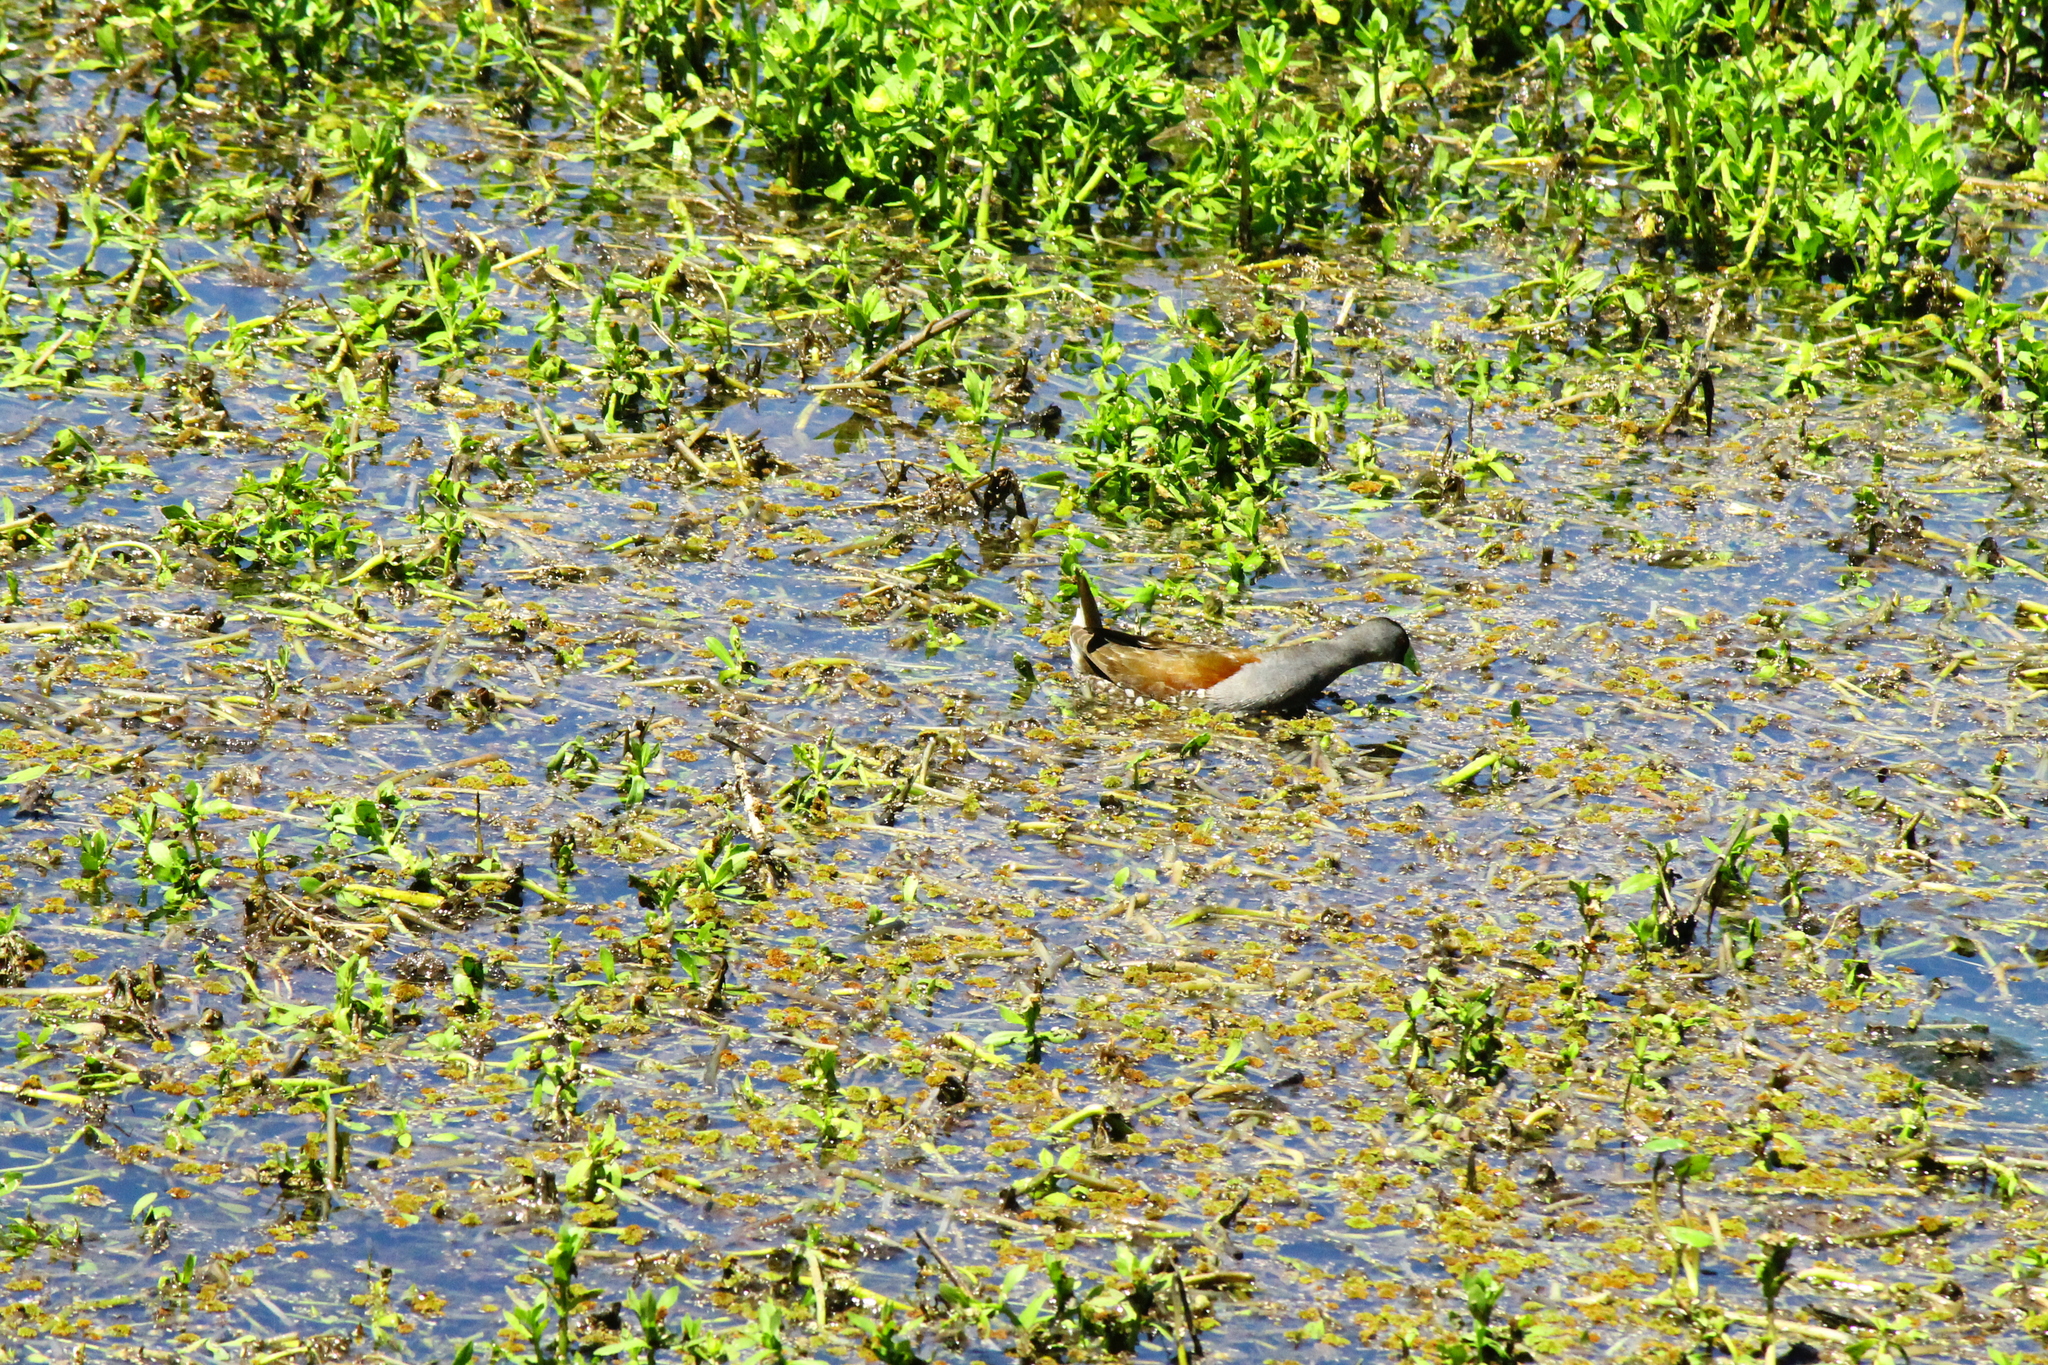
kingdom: Animalia
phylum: Chordata
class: Aves
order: Gruiformes
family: Rallidae
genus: Gallinula
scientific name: Gallinula melanops
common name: Spot-flanked gallinule
